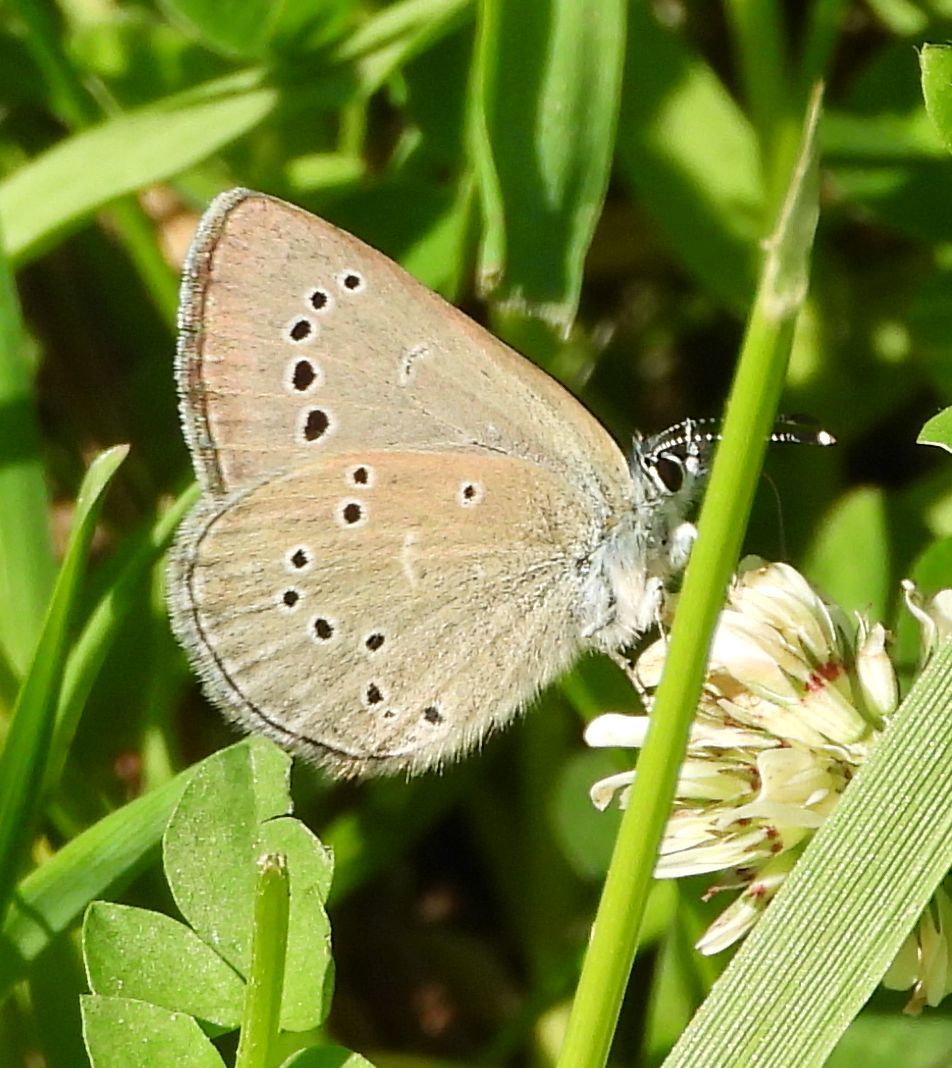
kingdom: Animalia
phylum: Arthropoda
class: Insecta
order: Lepidoptera
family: Lycaenidae
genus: Glaucopsyche
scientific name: Glaucopsyche lygdamus
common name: Silvery blue
